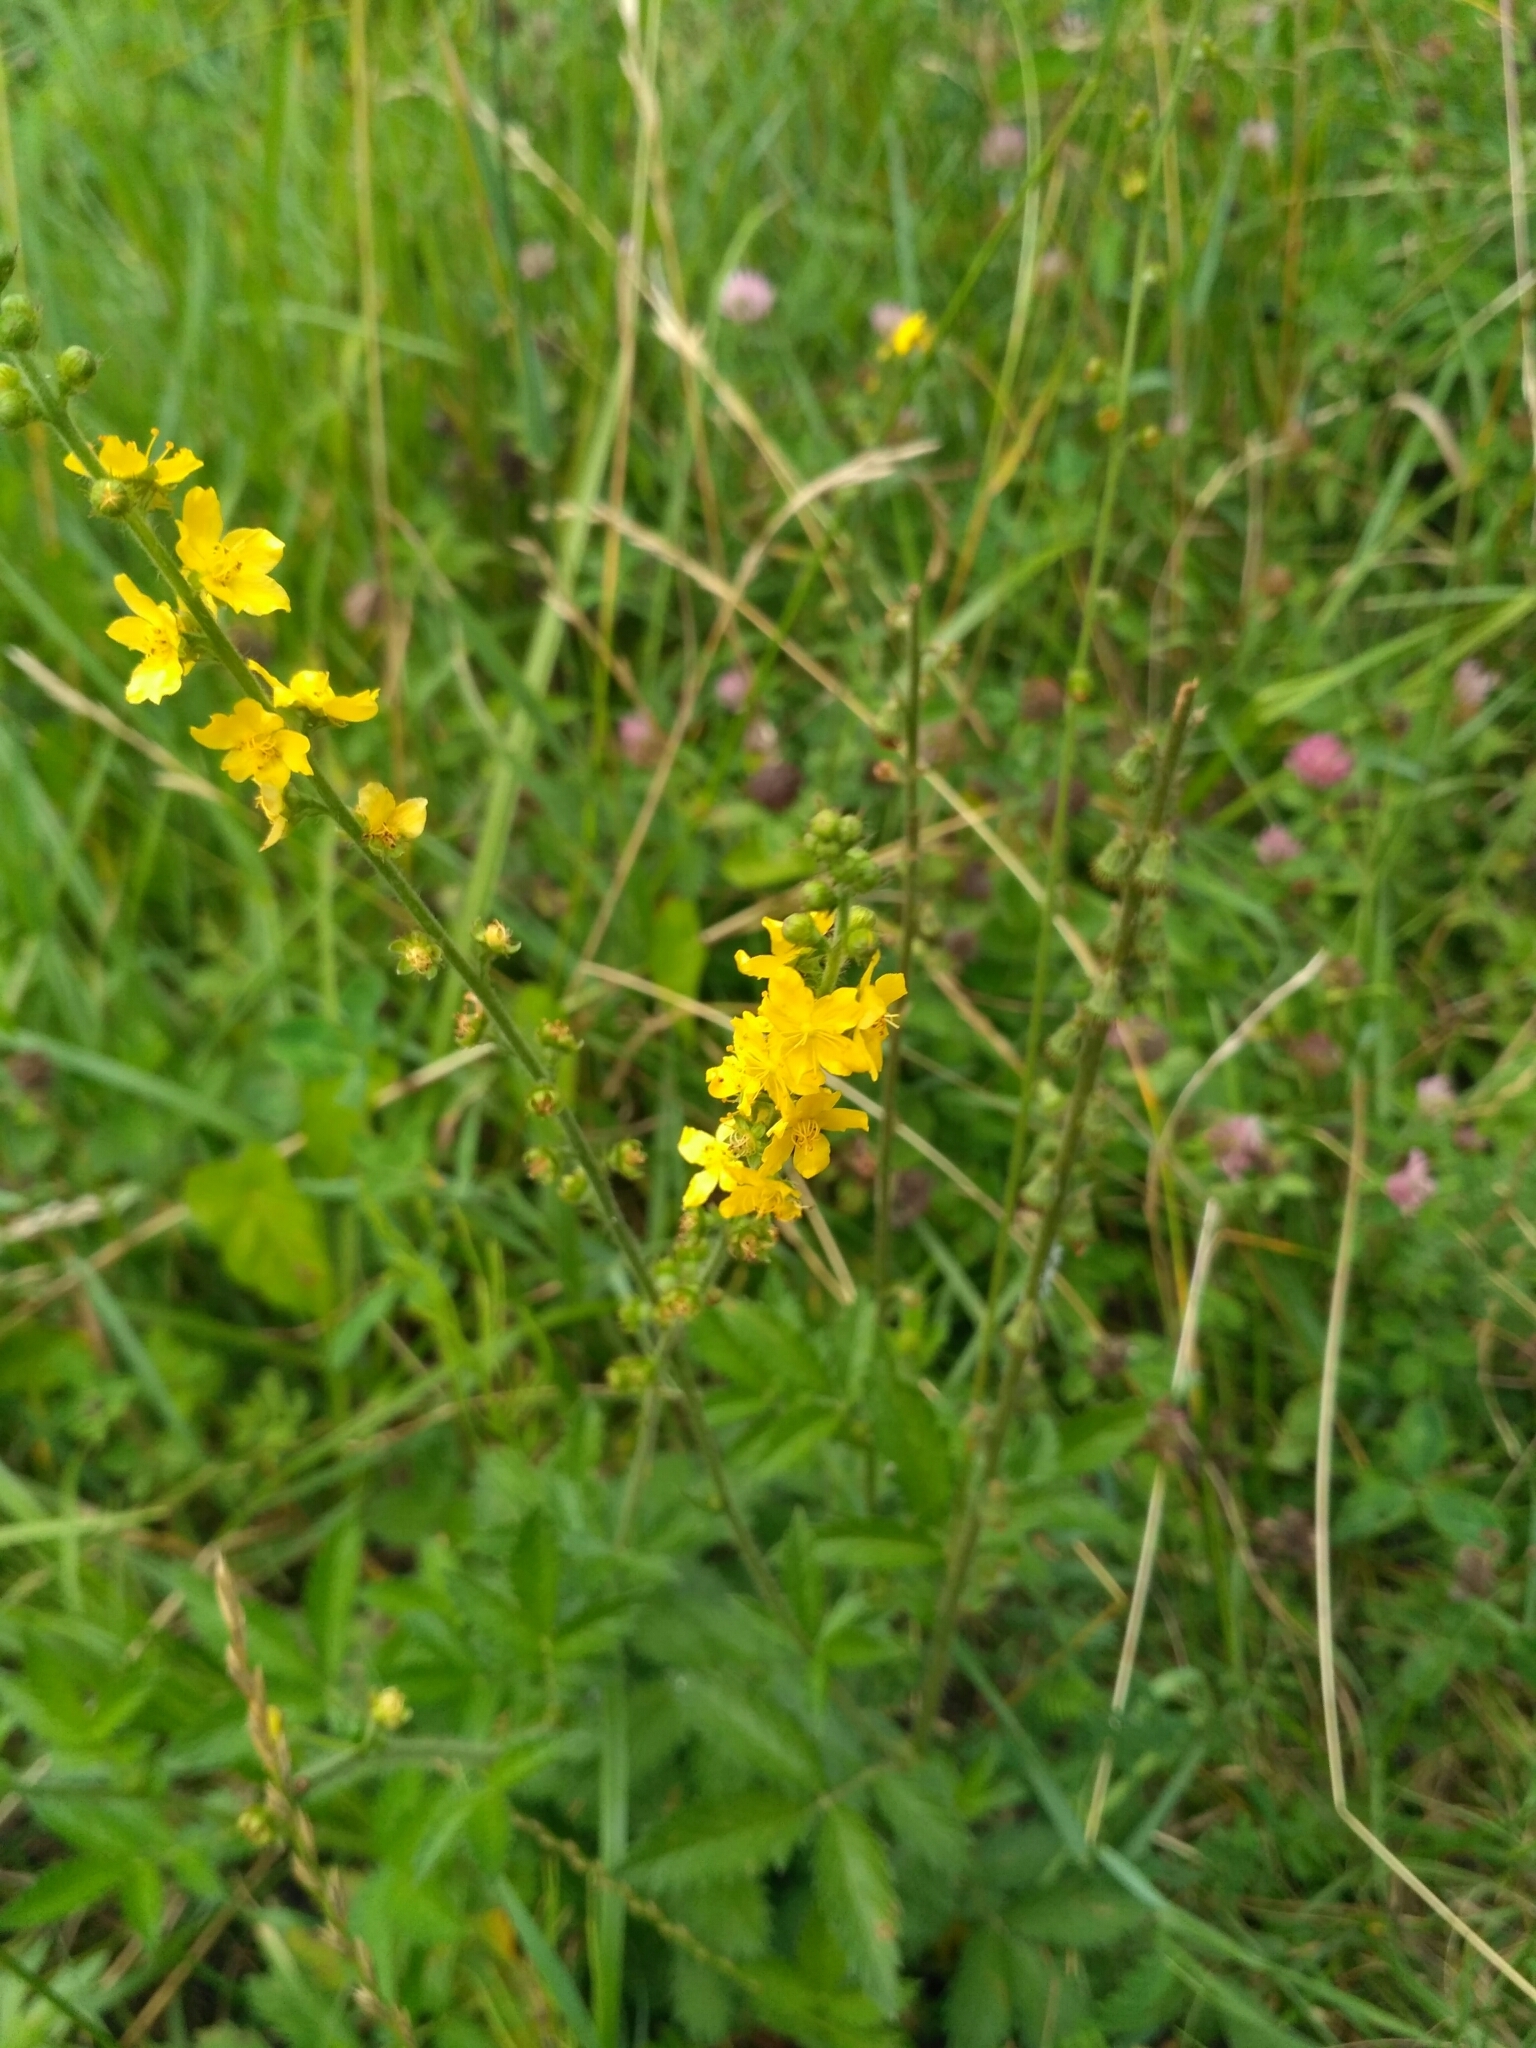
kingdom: Plantae
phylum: Tracheophyta
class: Magnoliopsida
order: Rosales
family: Rosaceae
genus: Agrimonia
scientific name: Agrimonia eupatoria
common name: Agrimony
